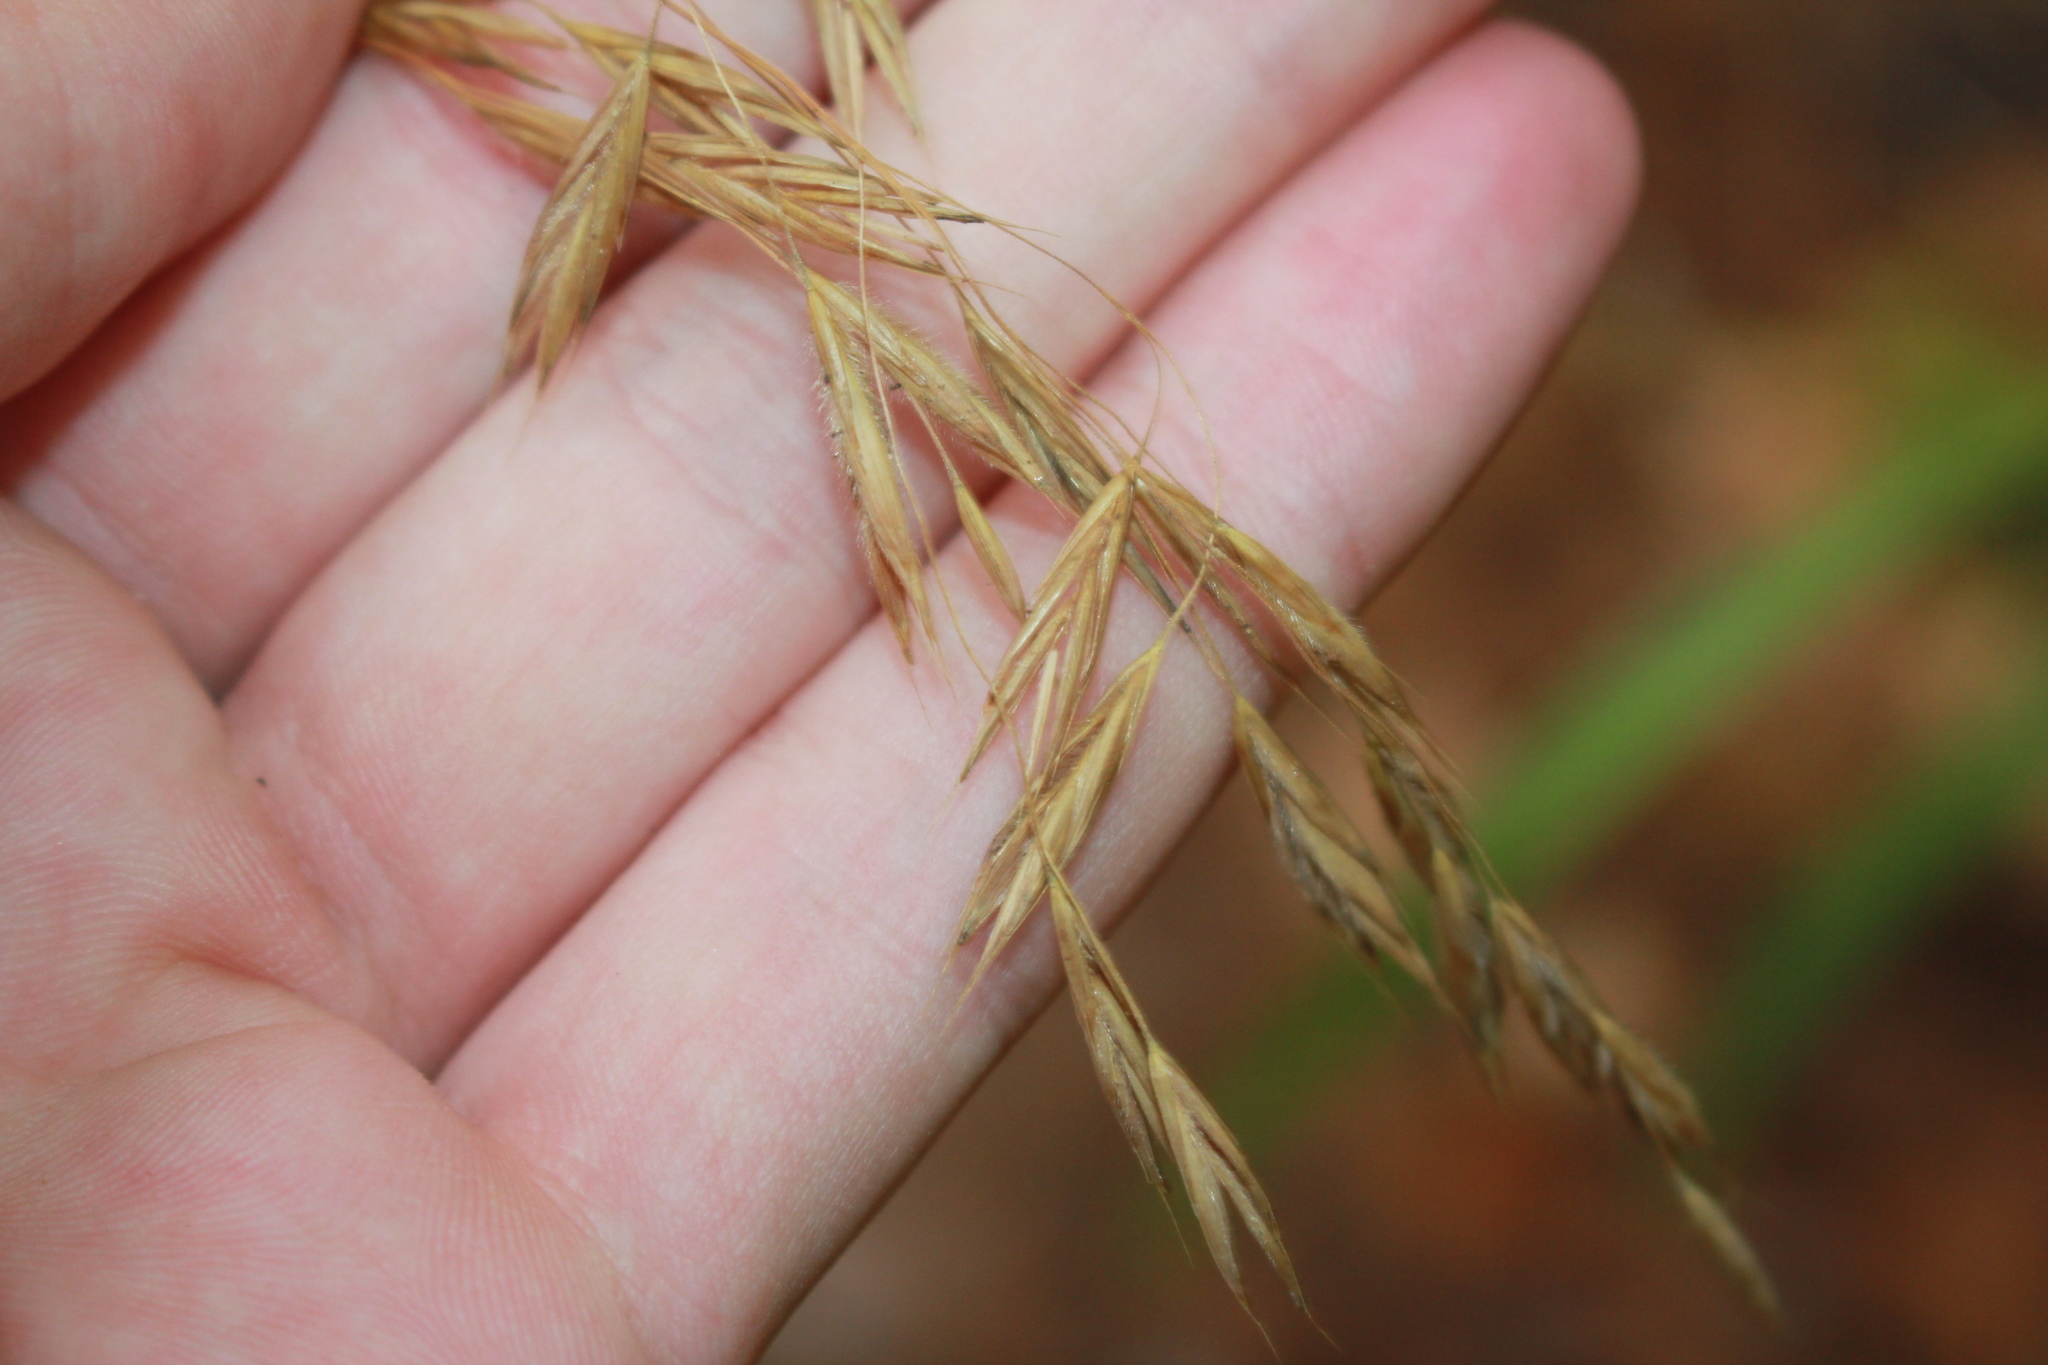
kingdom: Plantae
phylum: Tracheophyta
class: Liliopsida
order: Poales
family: Poaceae
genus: Bromus
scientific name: Bromus ciliatus
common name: Fringe brome
